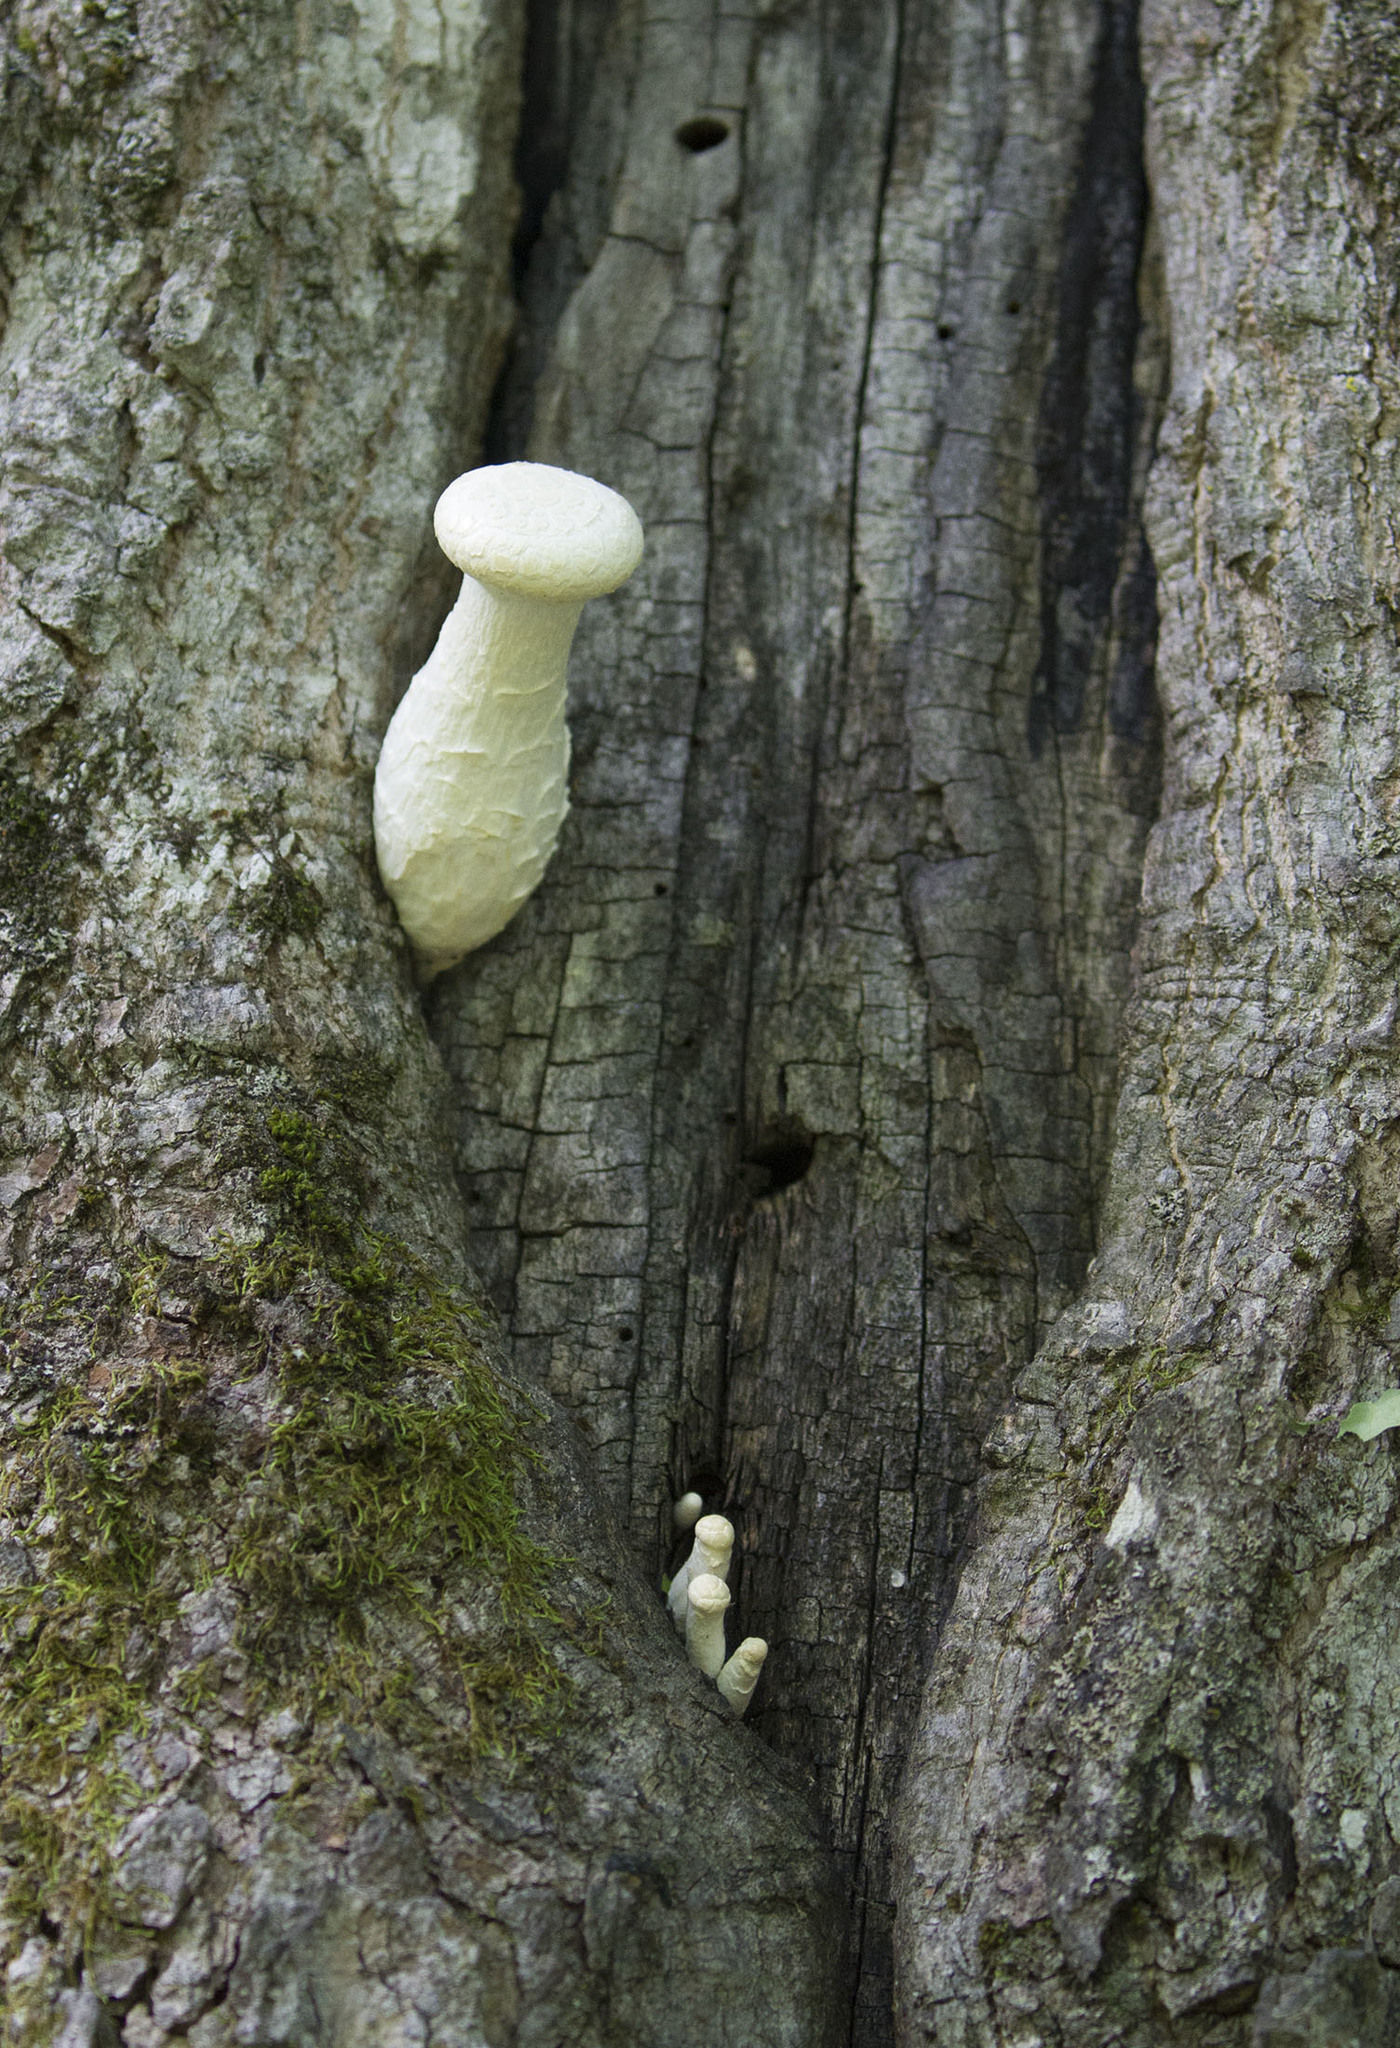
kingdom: Fungi
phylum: Basidiomycota
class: Agaricomycetes
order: Agaricales
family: Pleurotaceae
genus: Pleurotus
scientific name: Pleurotus dryinus
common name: Veiled oyster
